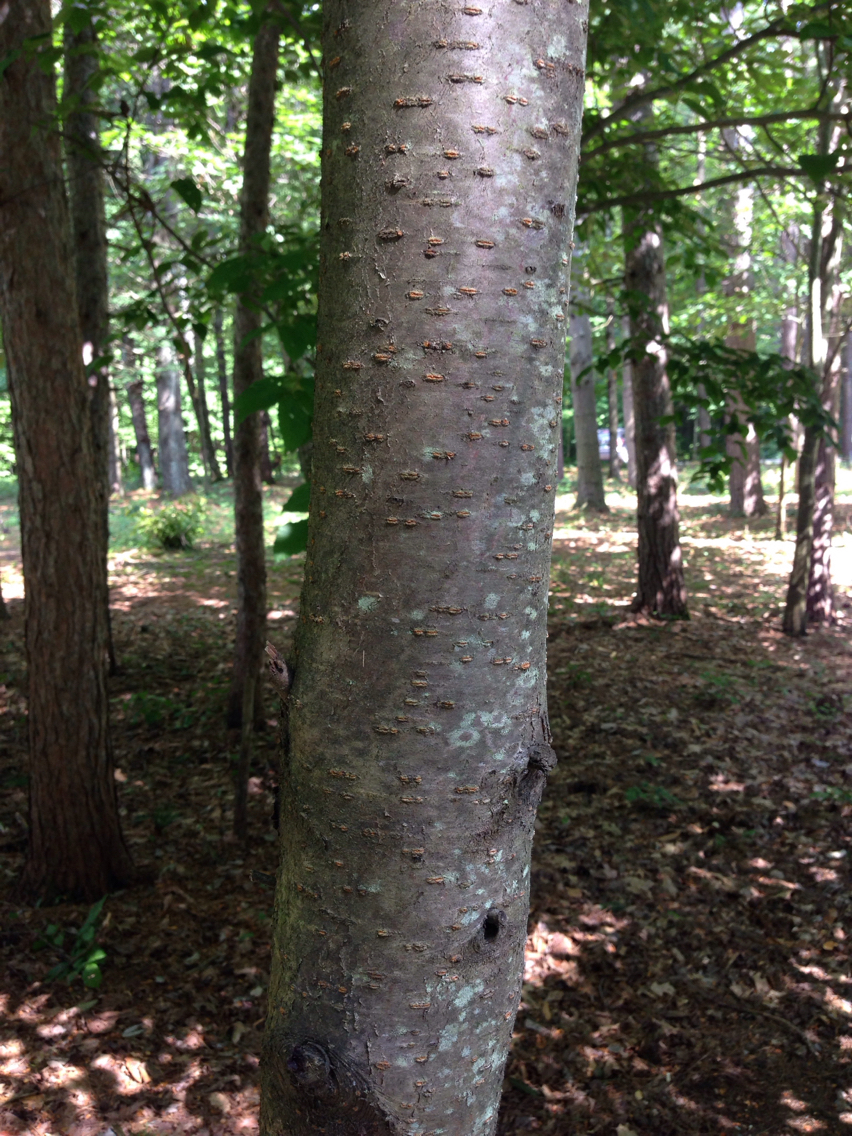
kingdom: Plantae
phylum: Tracheophyta
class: Magnoliopsida
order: Rosales
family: Rosaceae
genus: Prunus
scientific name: Prunus pensylvanica
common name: Pin cherry
